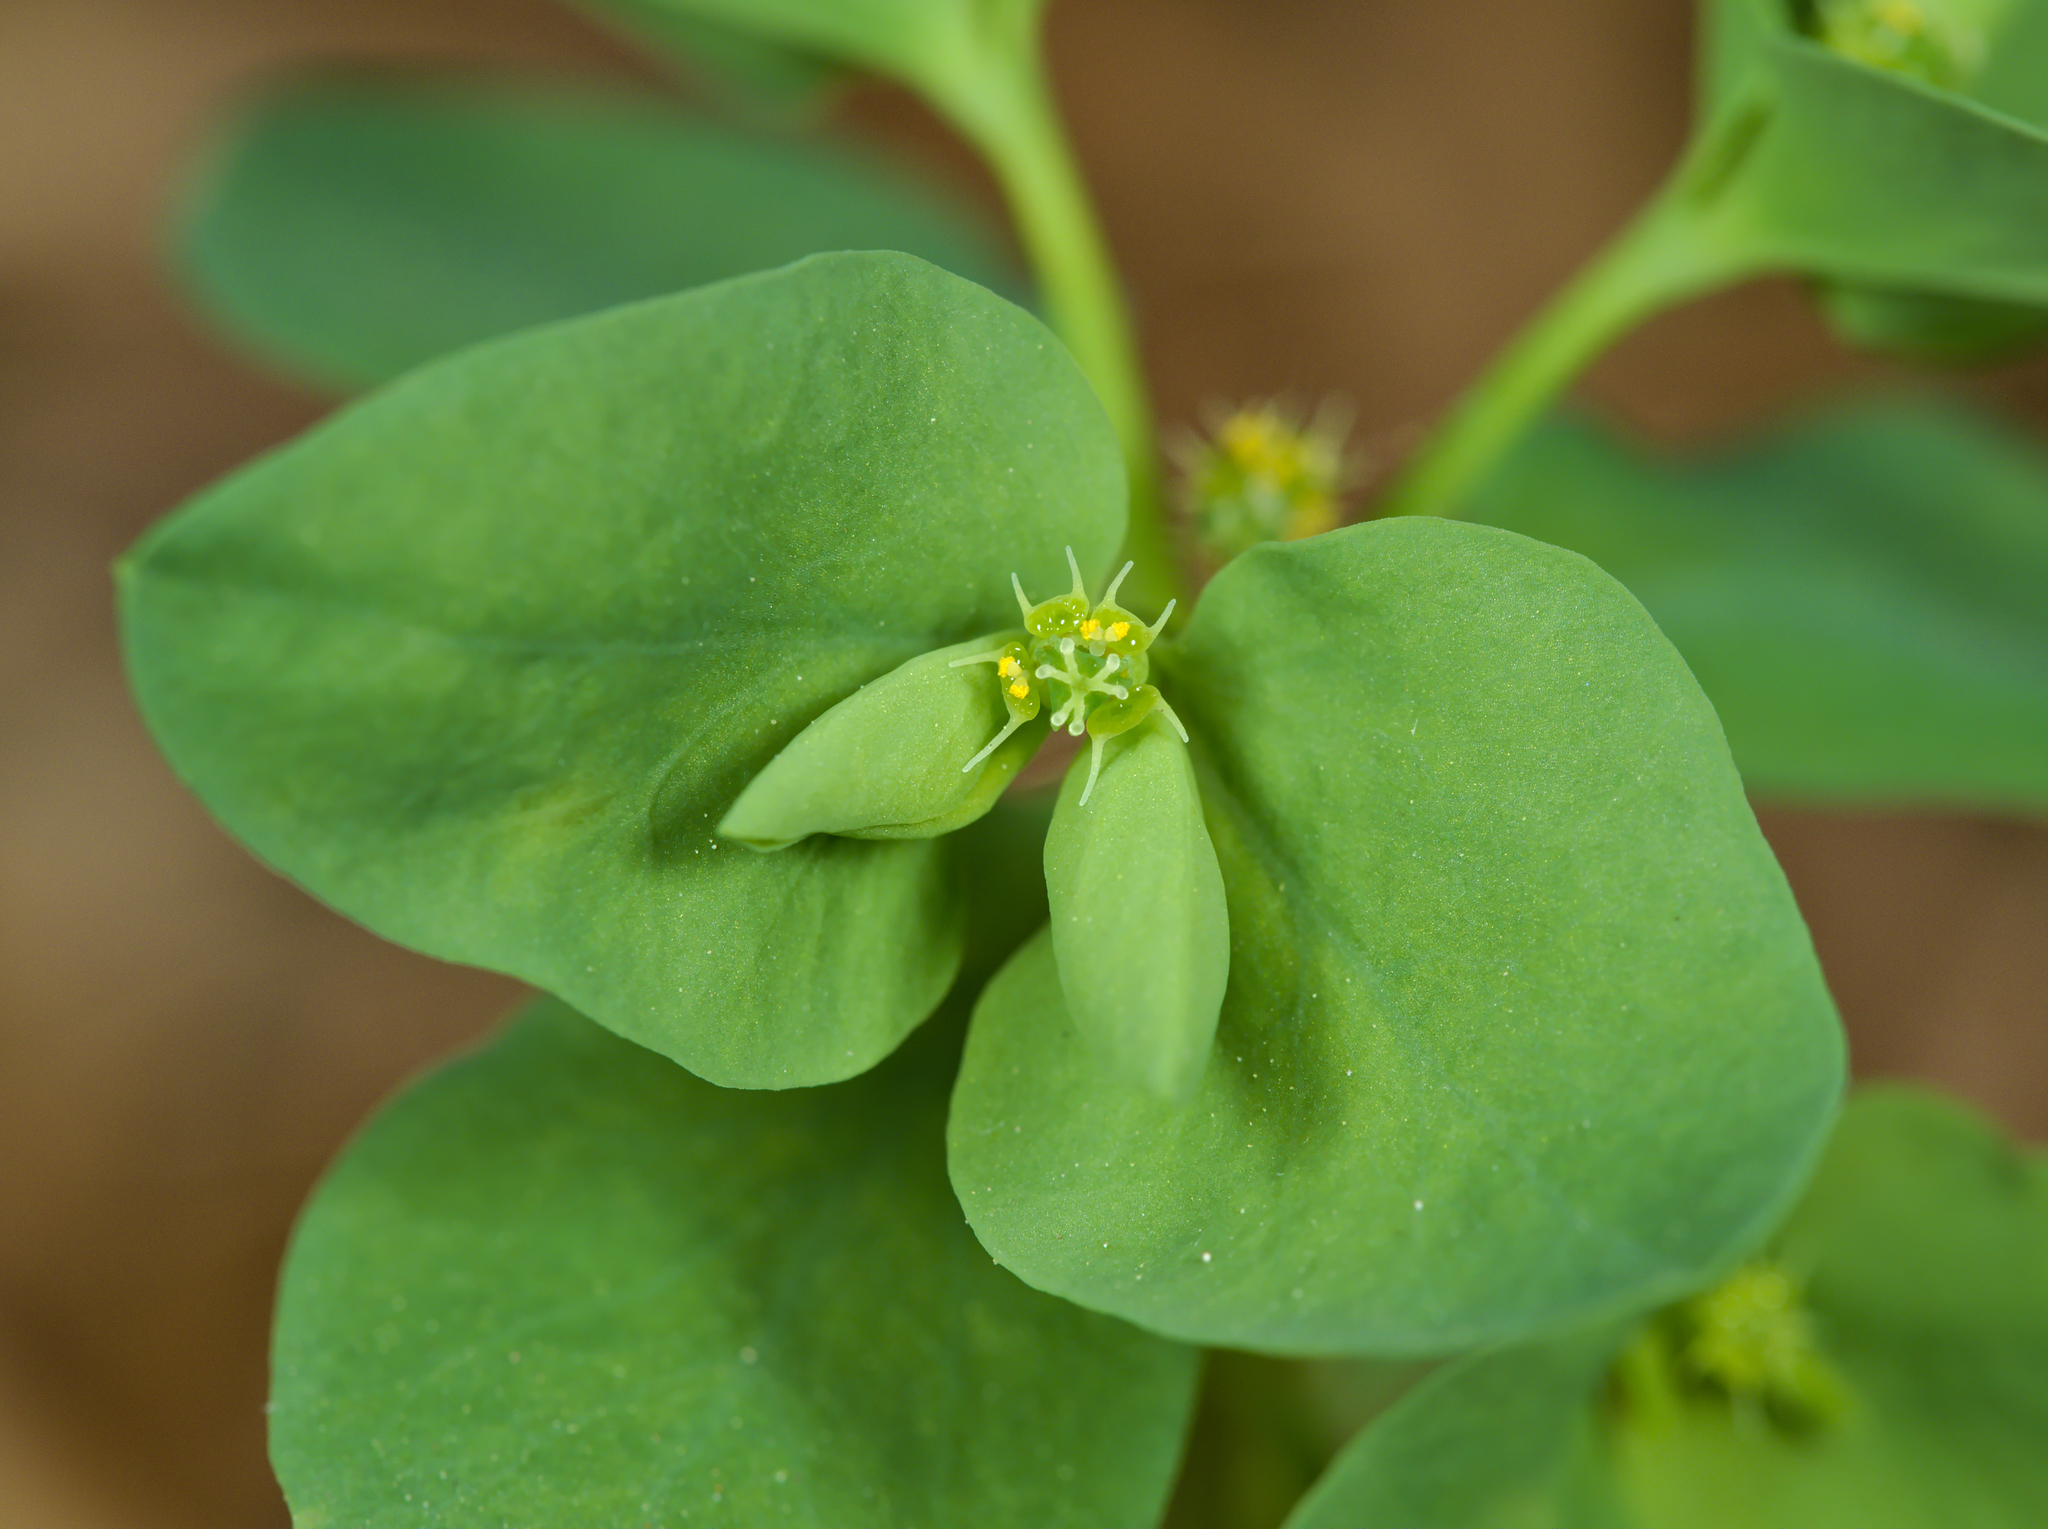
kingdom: Plantae
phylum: Tracheophyta
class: Magnoliopsida
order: Malpighiales
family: Euphorbiaceae
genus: Euphorbia
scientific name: Euphorbia peplus
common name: Petty spurge
